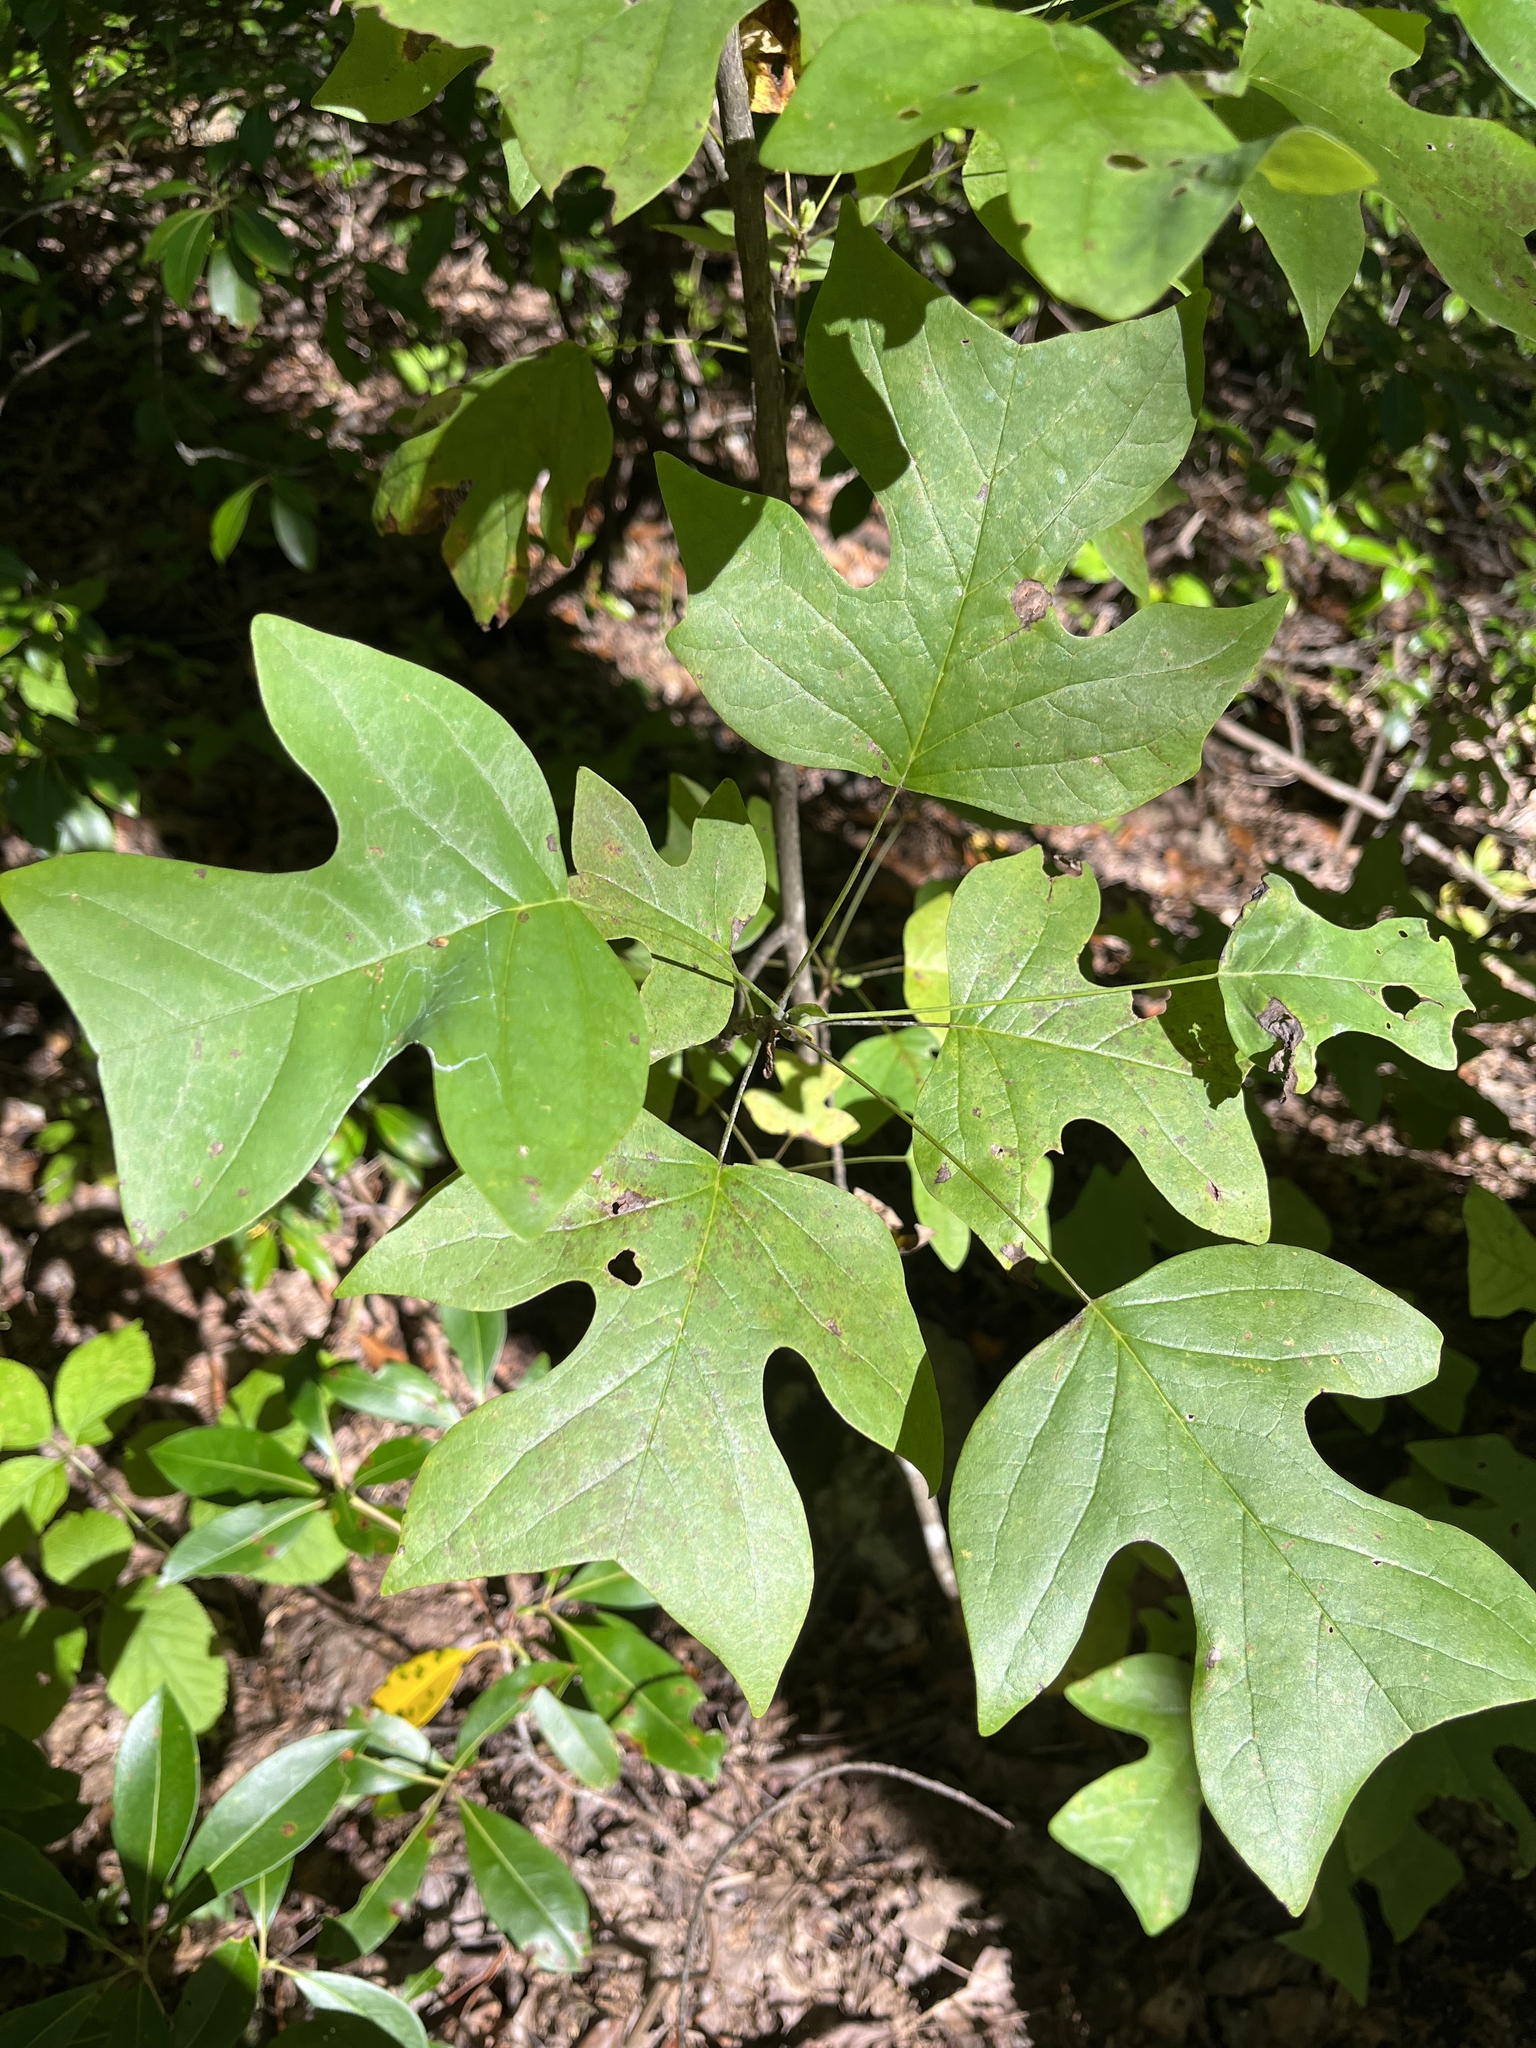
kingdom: Plantae
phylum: Tracheophyta
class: Magnoliopsida
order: Magnoliales
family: Magnoliaceae
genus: Liriodendron
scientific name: Liriodendron tulipifera
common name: Tulip tree
